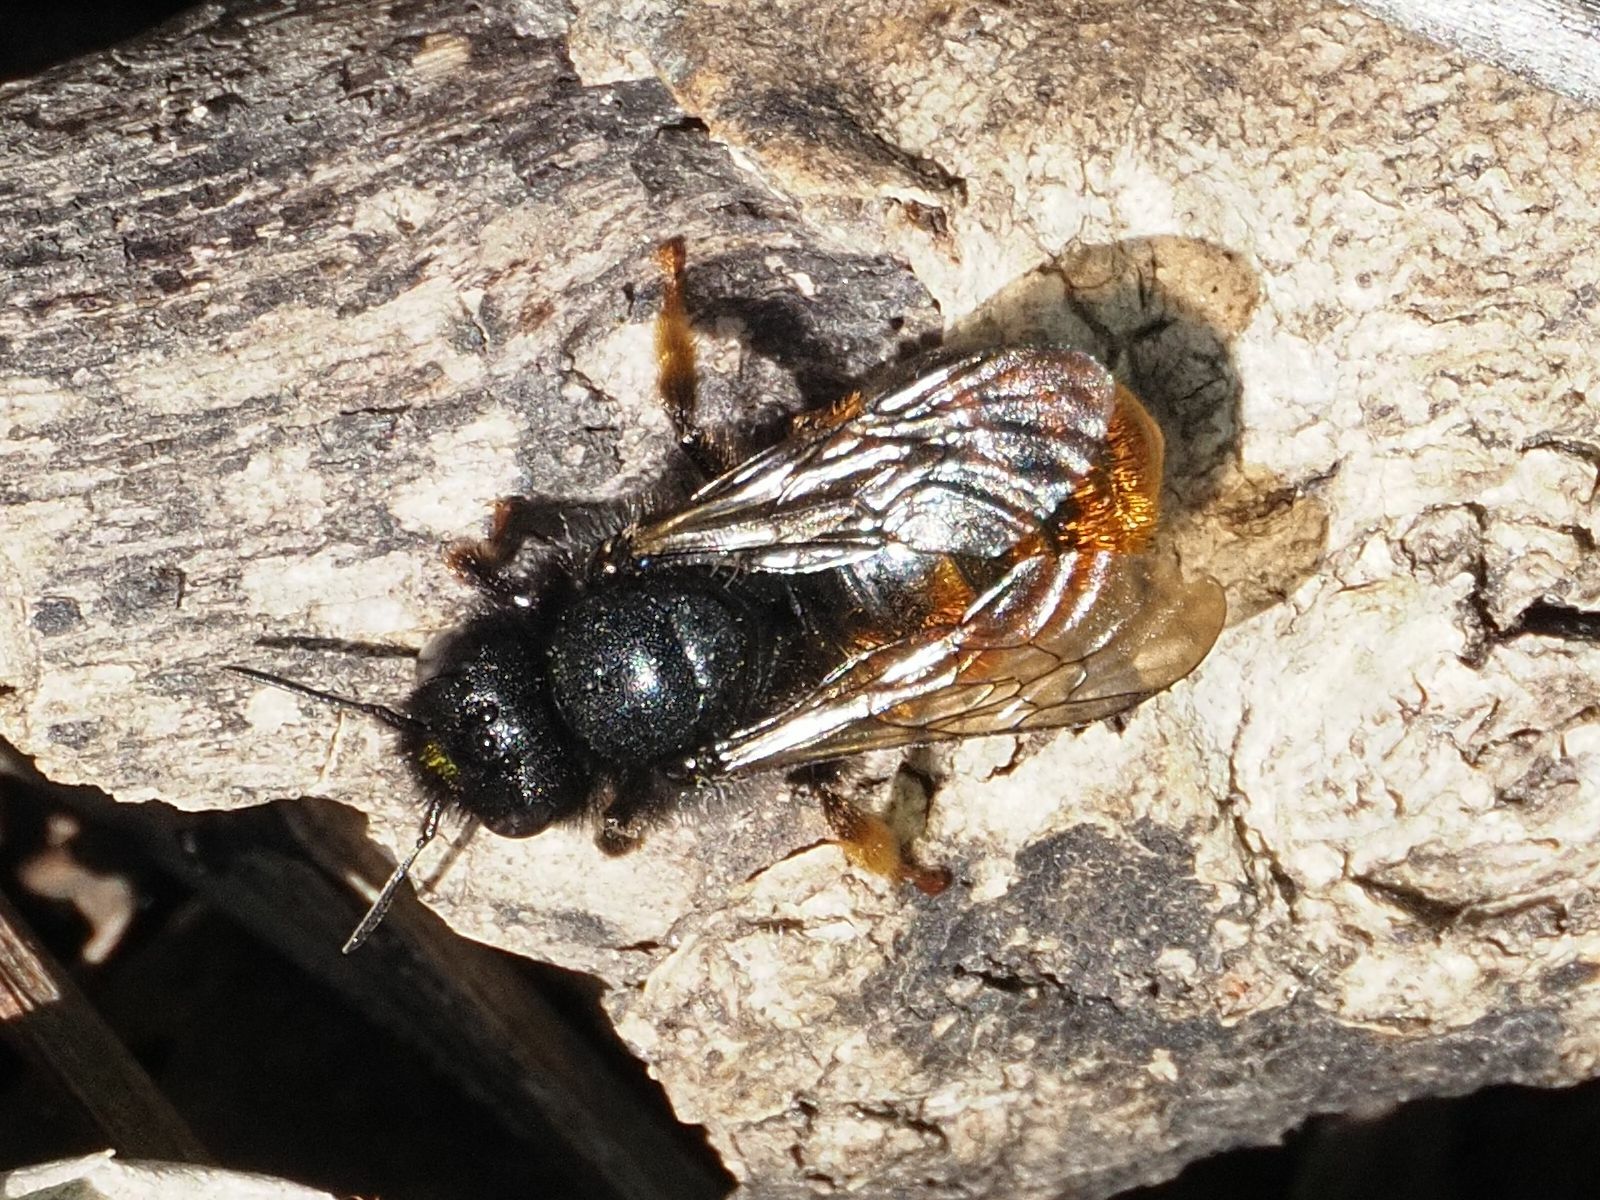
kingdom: Animalia
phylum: Arthropoda
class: Insecta
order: Hymenoptera
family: Megachilidae
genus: Osmia
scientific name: Osmia bicolor
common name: Red-tailed mason bee
